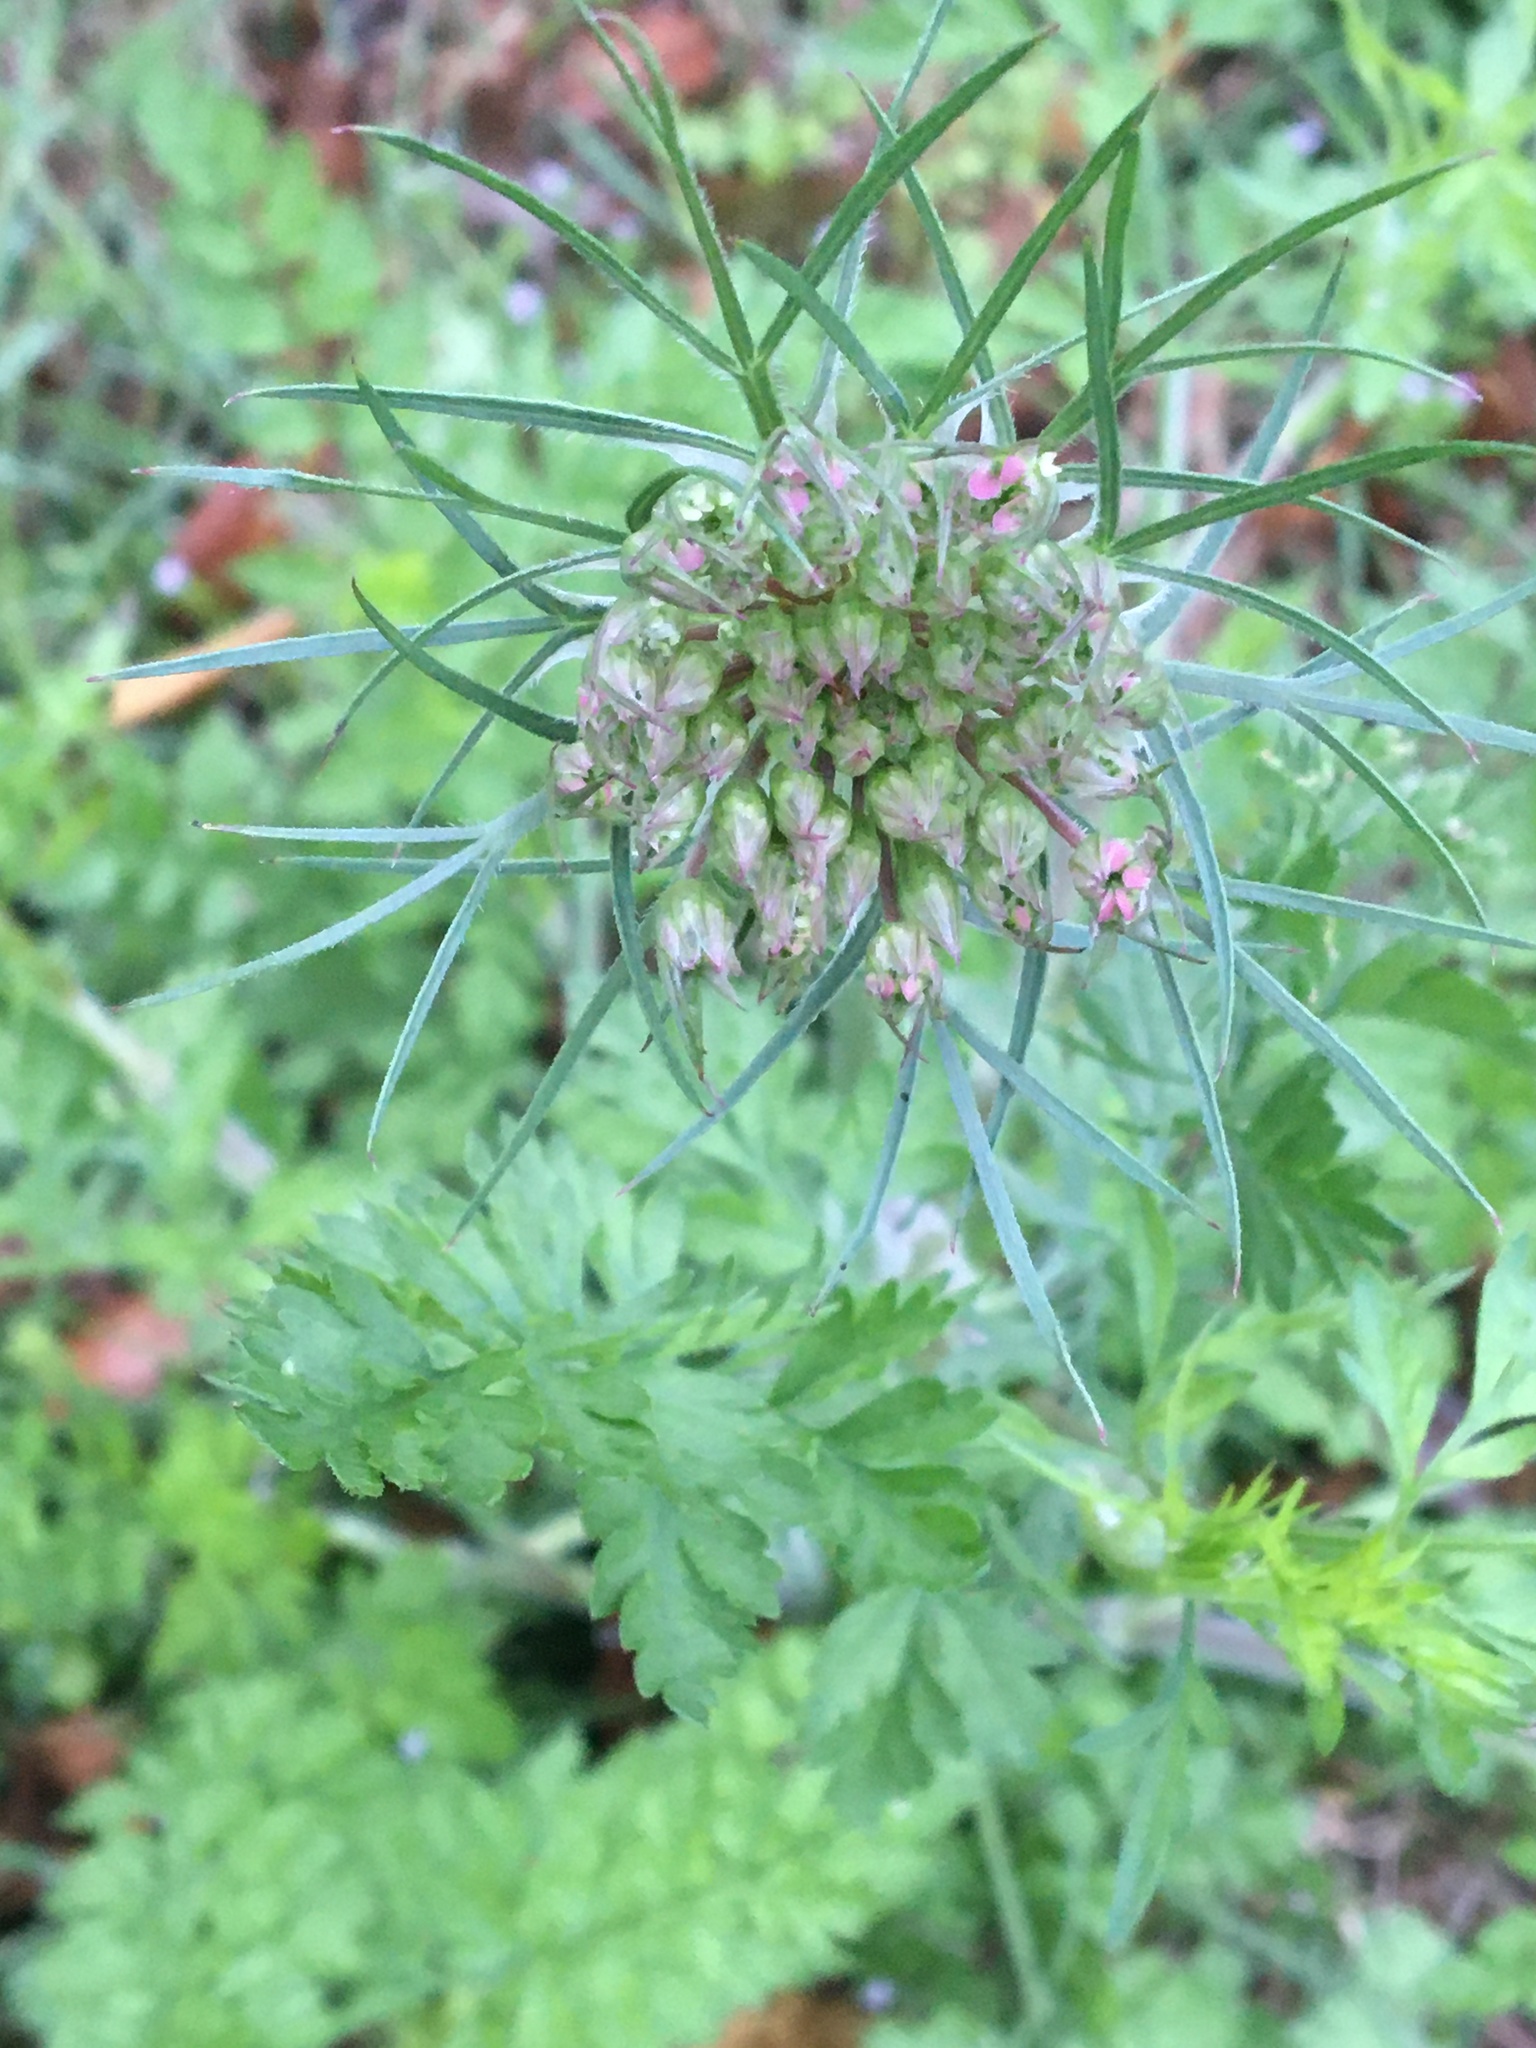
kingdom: Plantae
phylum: Tracheophyta
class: Magnoliopsida
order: Apiales
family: Apiaceae
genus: Daucus
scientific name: Daucus carota
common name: Wild carrot
